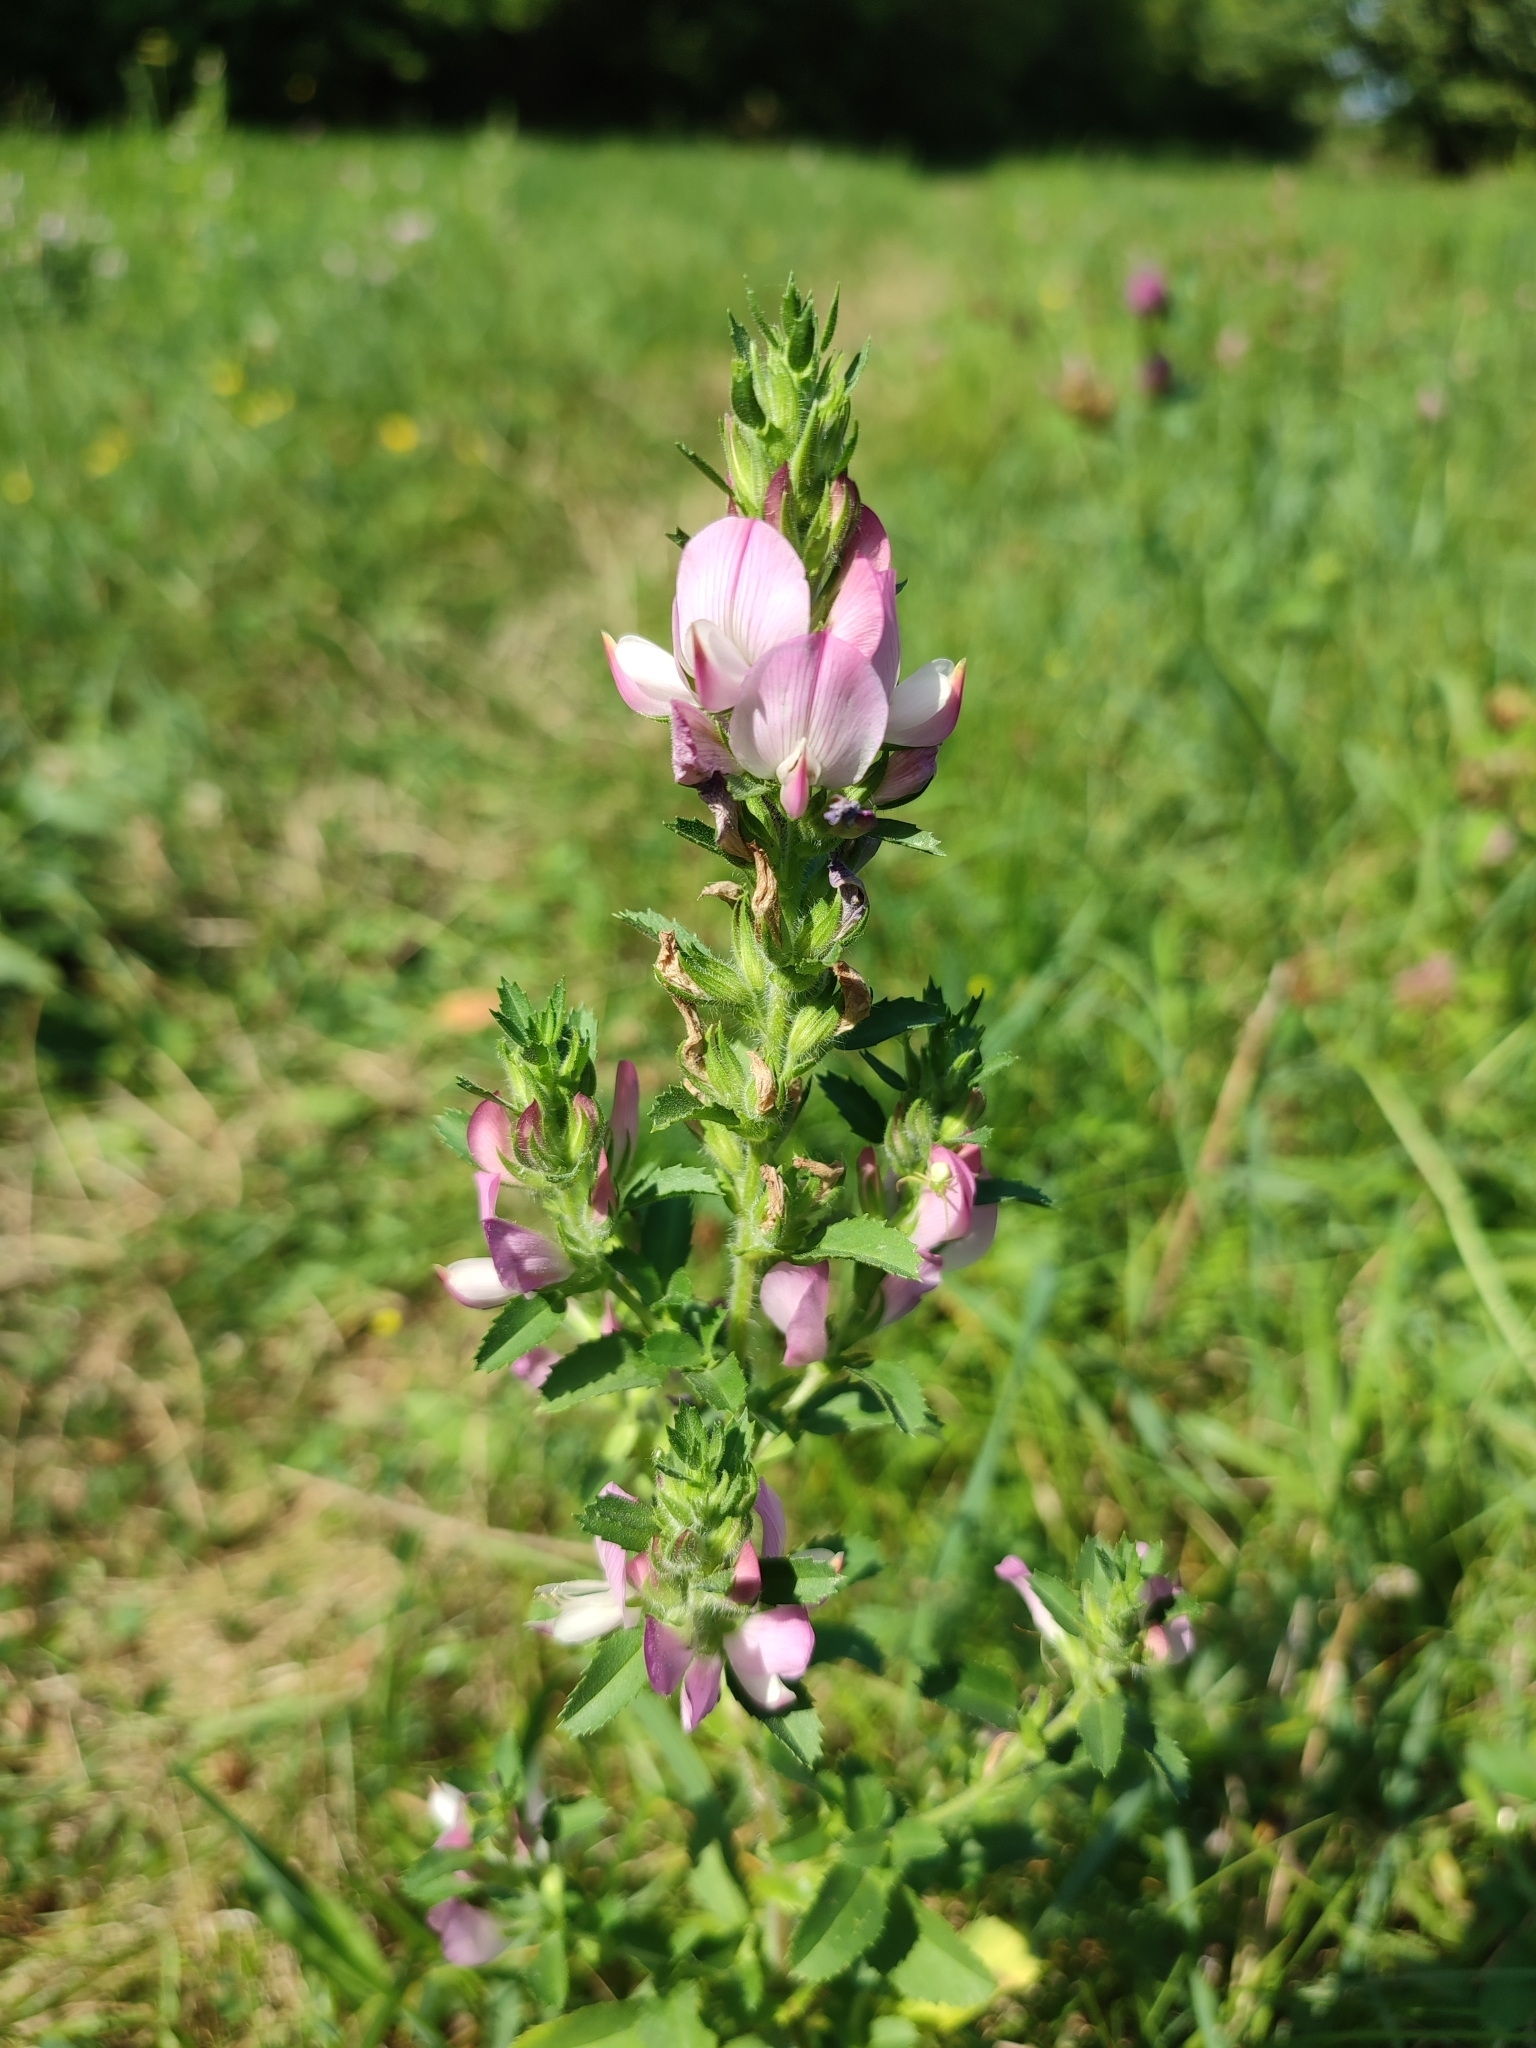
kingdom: Plantae
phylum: Tracheophyta
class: Magnoliopsida
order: Fabales
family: Fabaceae
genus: Ononis
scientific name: Ononis arvensis
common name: Field restharrow
